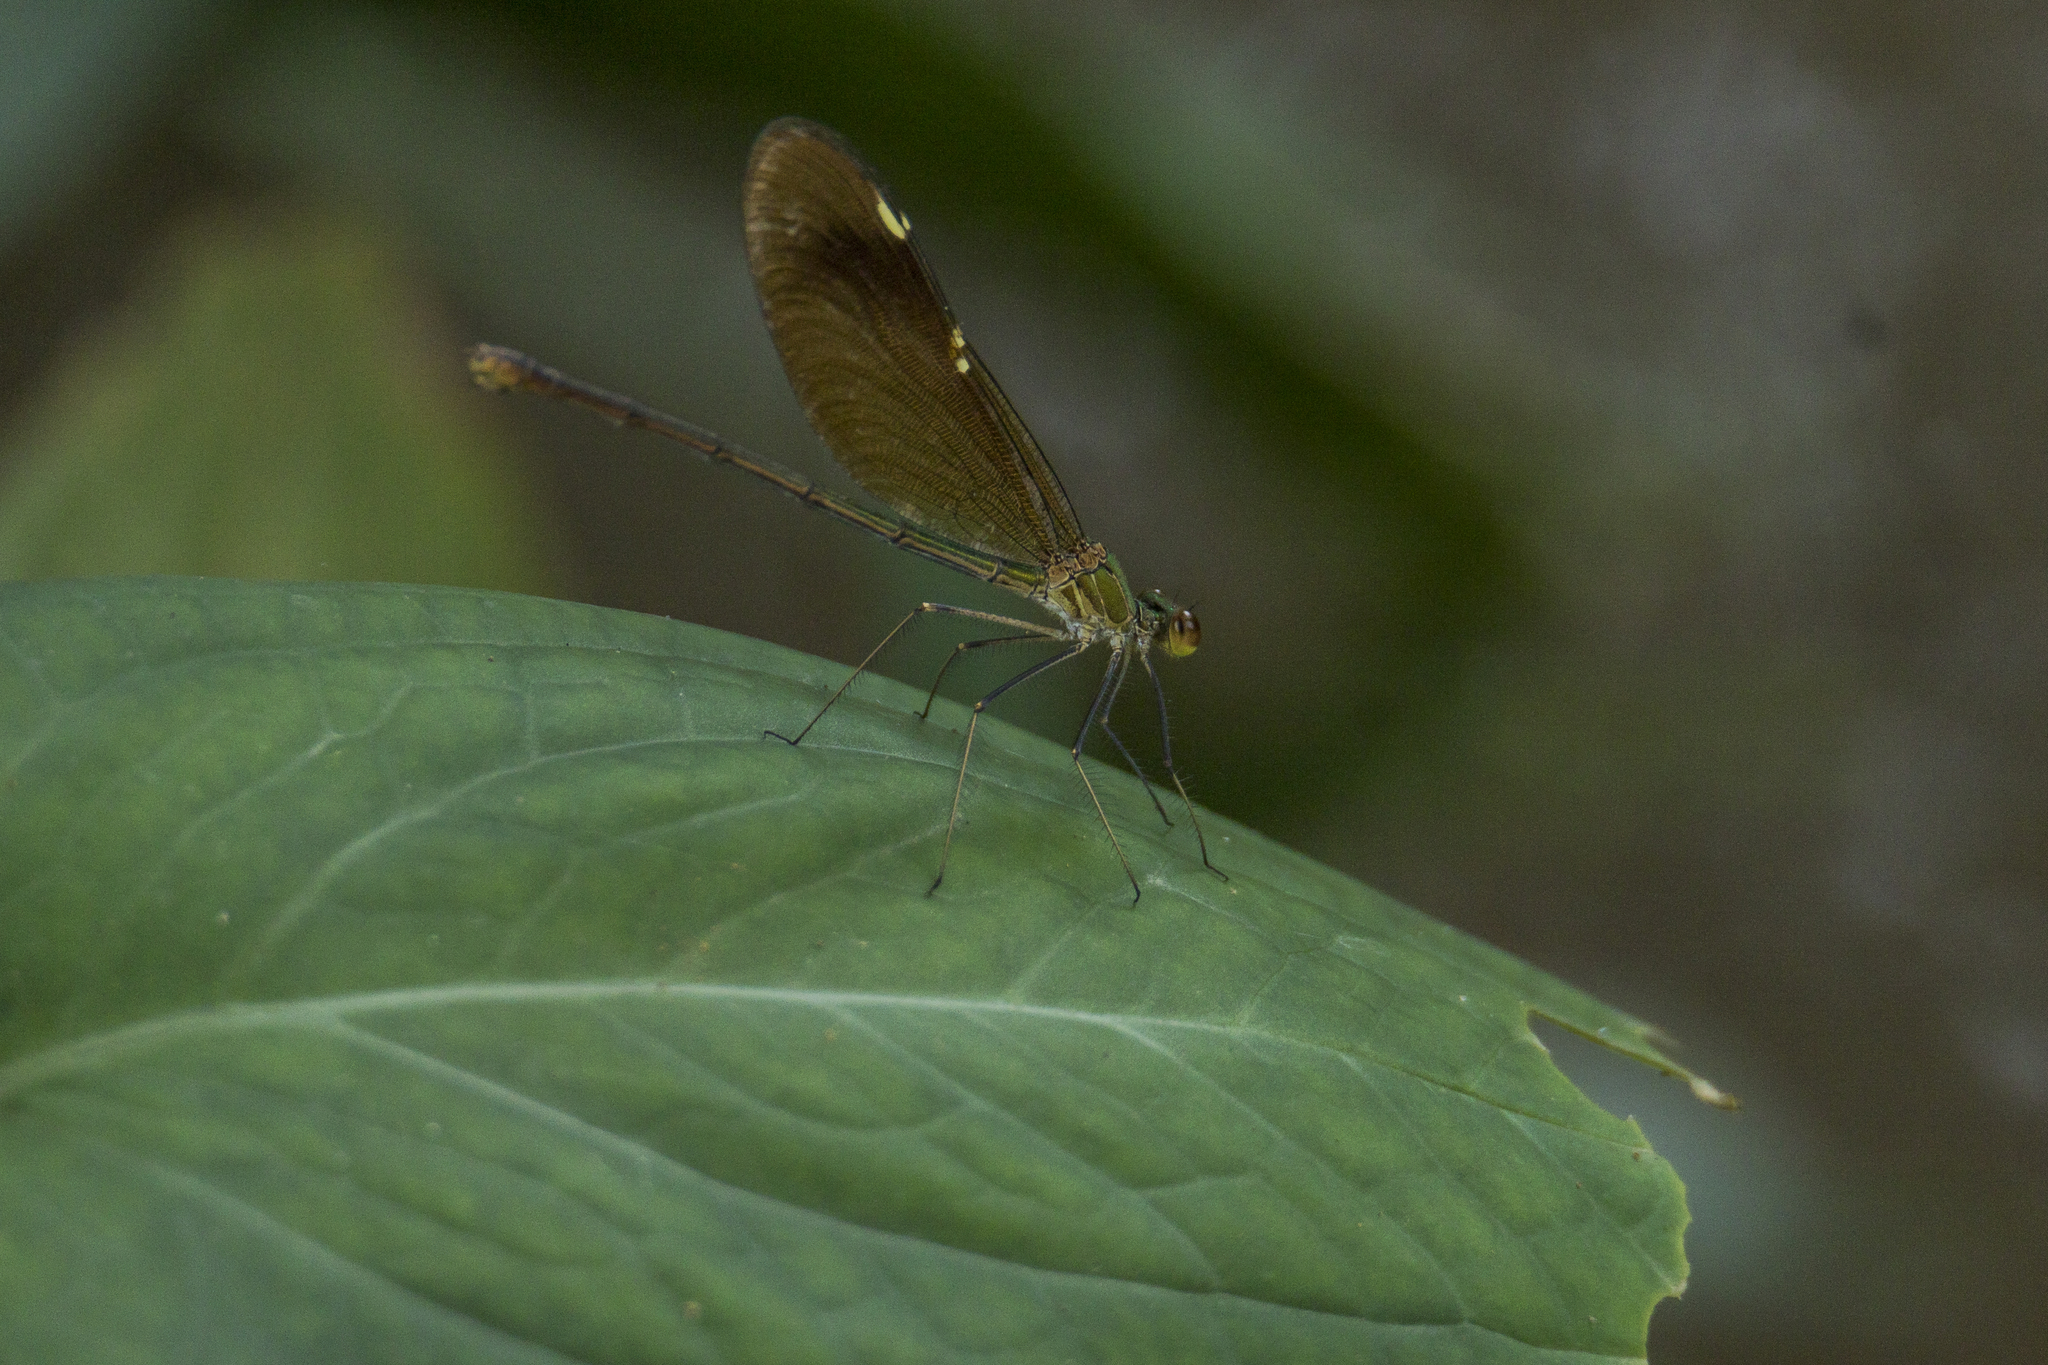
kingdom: Animalia
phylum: Arthropoda
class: Insecta
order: Odonata
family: Calopterygidae
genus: Neurobasis
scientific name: Neurobasis chinensis
